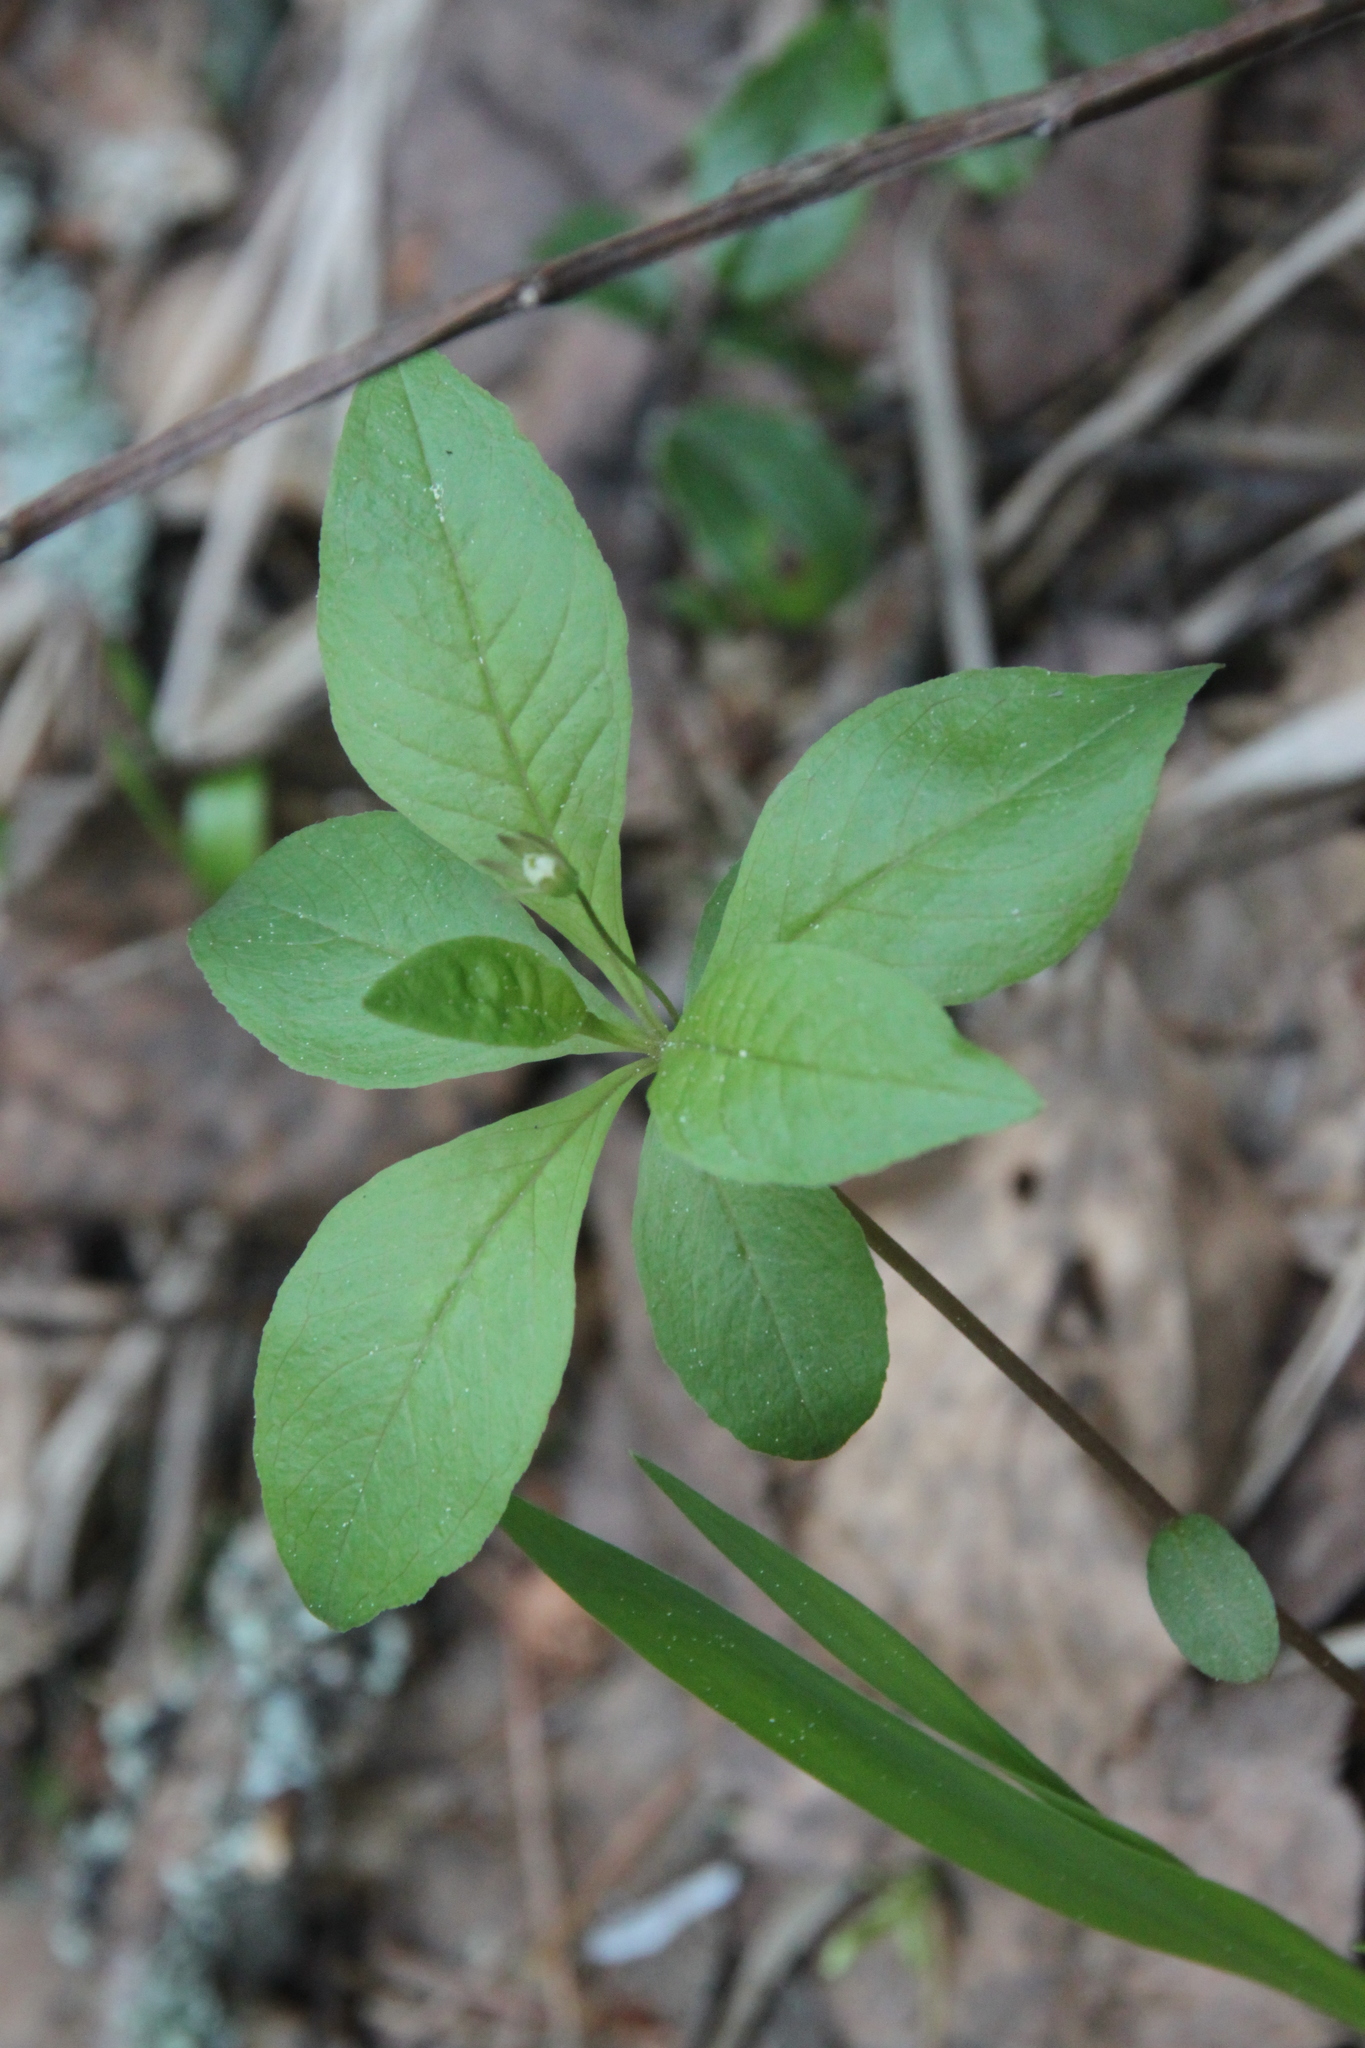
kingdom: Plantae
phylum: Tracheophyta
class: Magnoliopsida
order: Ericales
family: Primulaceae
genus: Lysimachia
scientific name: Lysimachia europaea
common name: Arctic starflower
